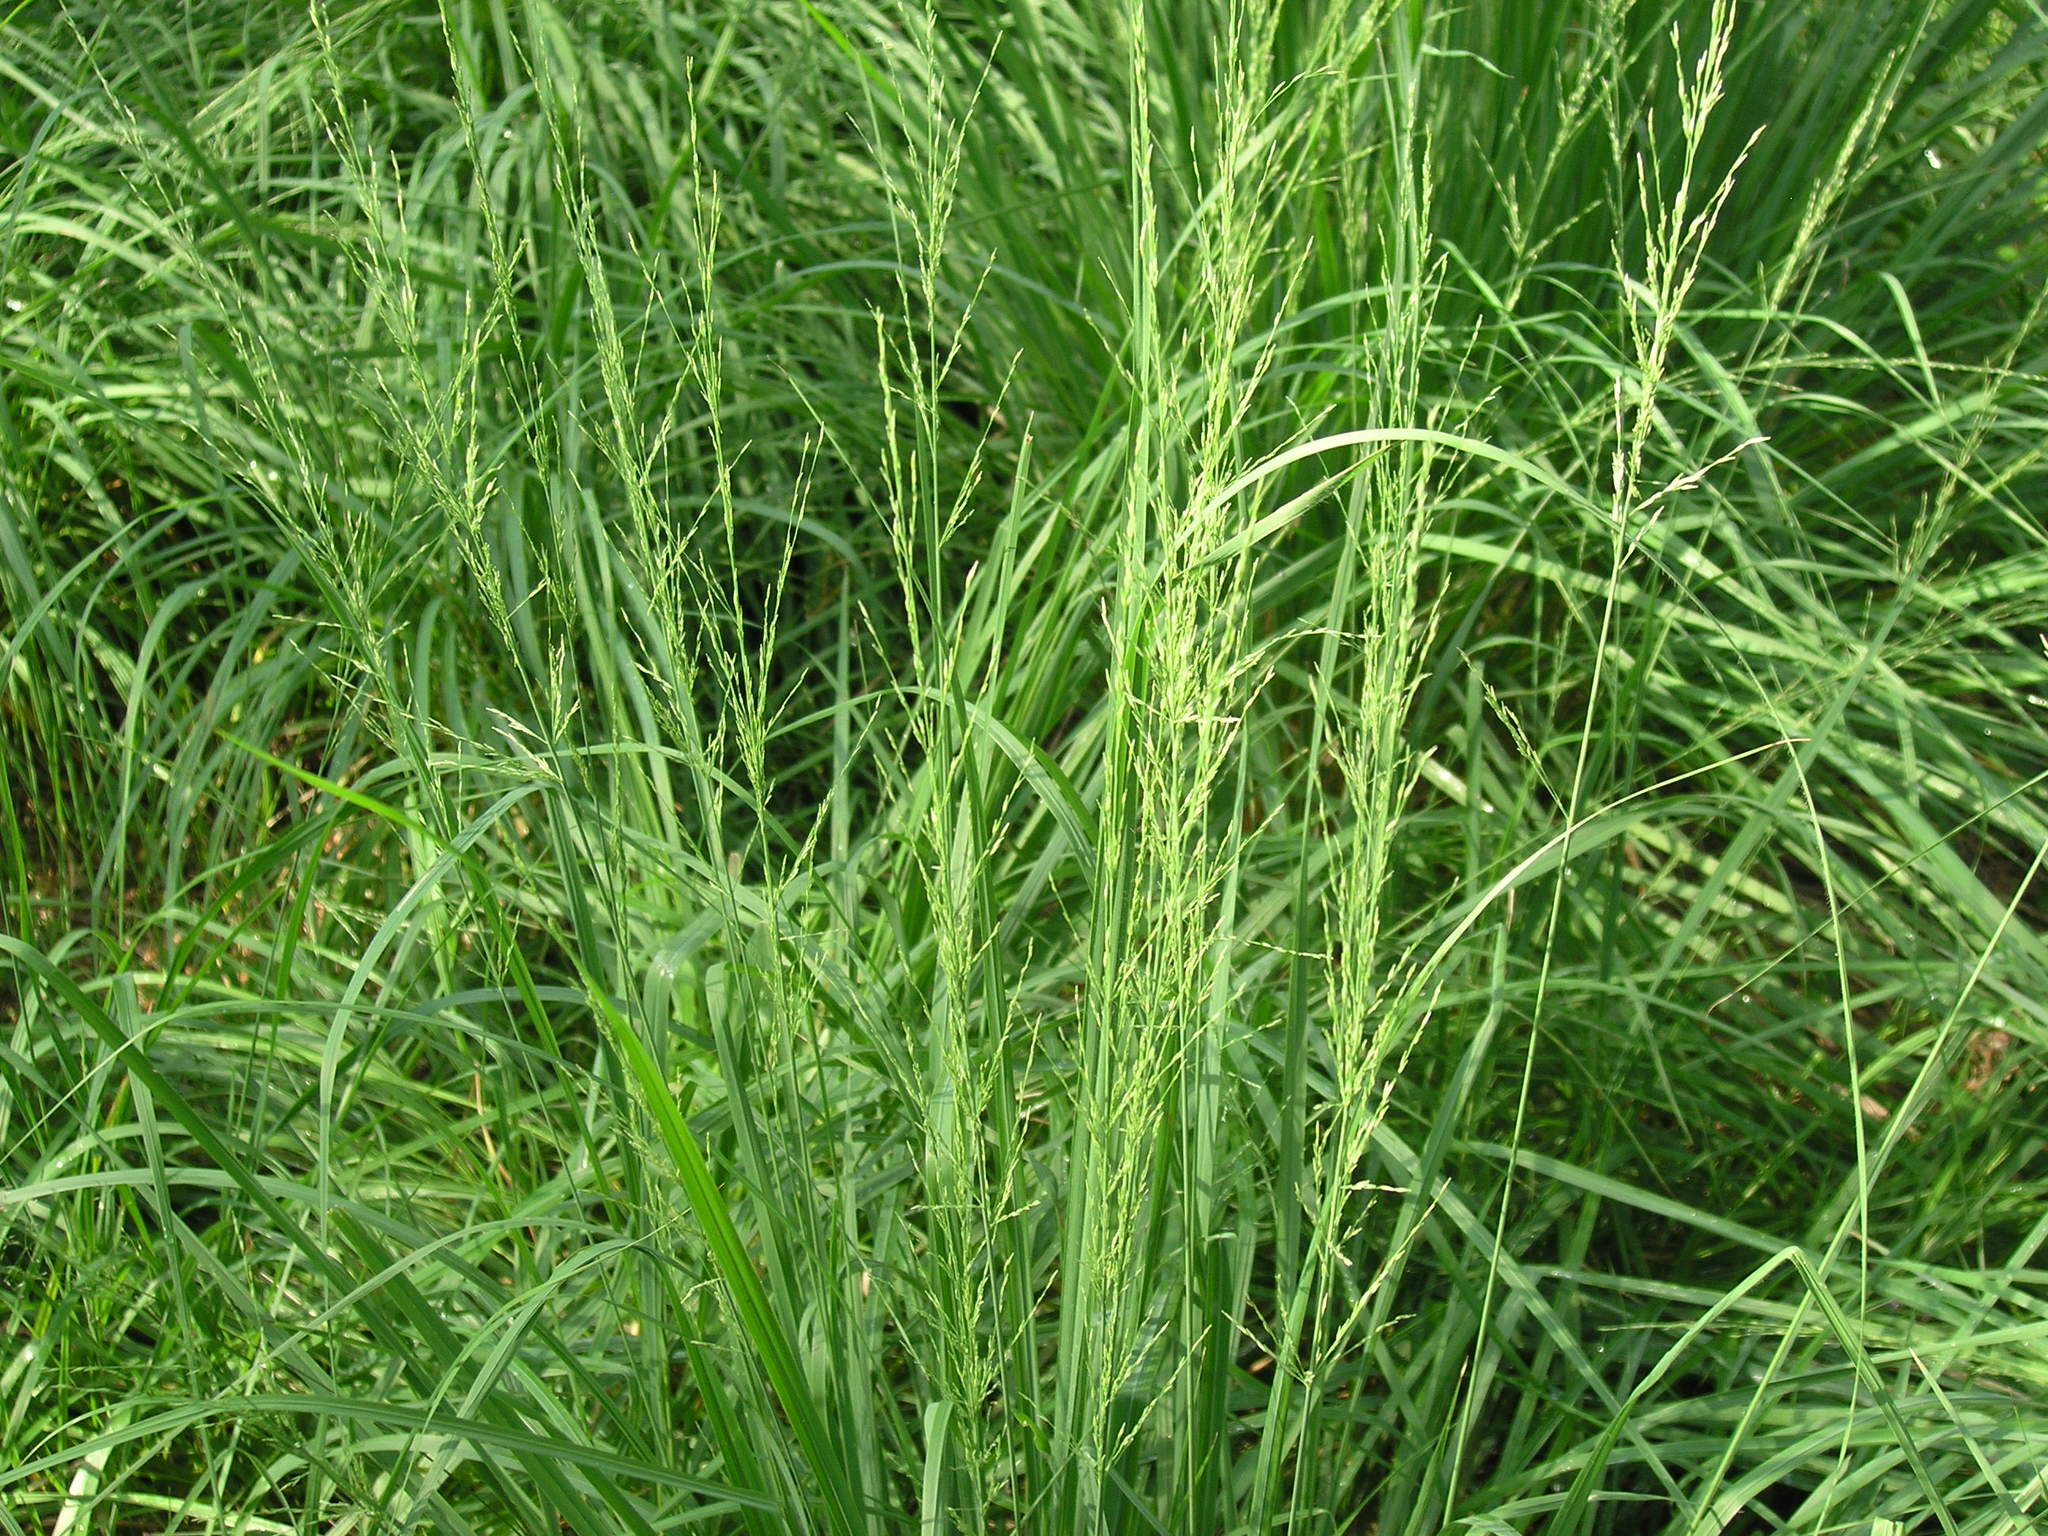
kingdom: Plantae
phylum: Tracheophyta
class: Liliopsida
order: Poales
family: Poaceae
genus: Molinia
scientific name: Molinia caerulea
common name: Purple moor-grass
